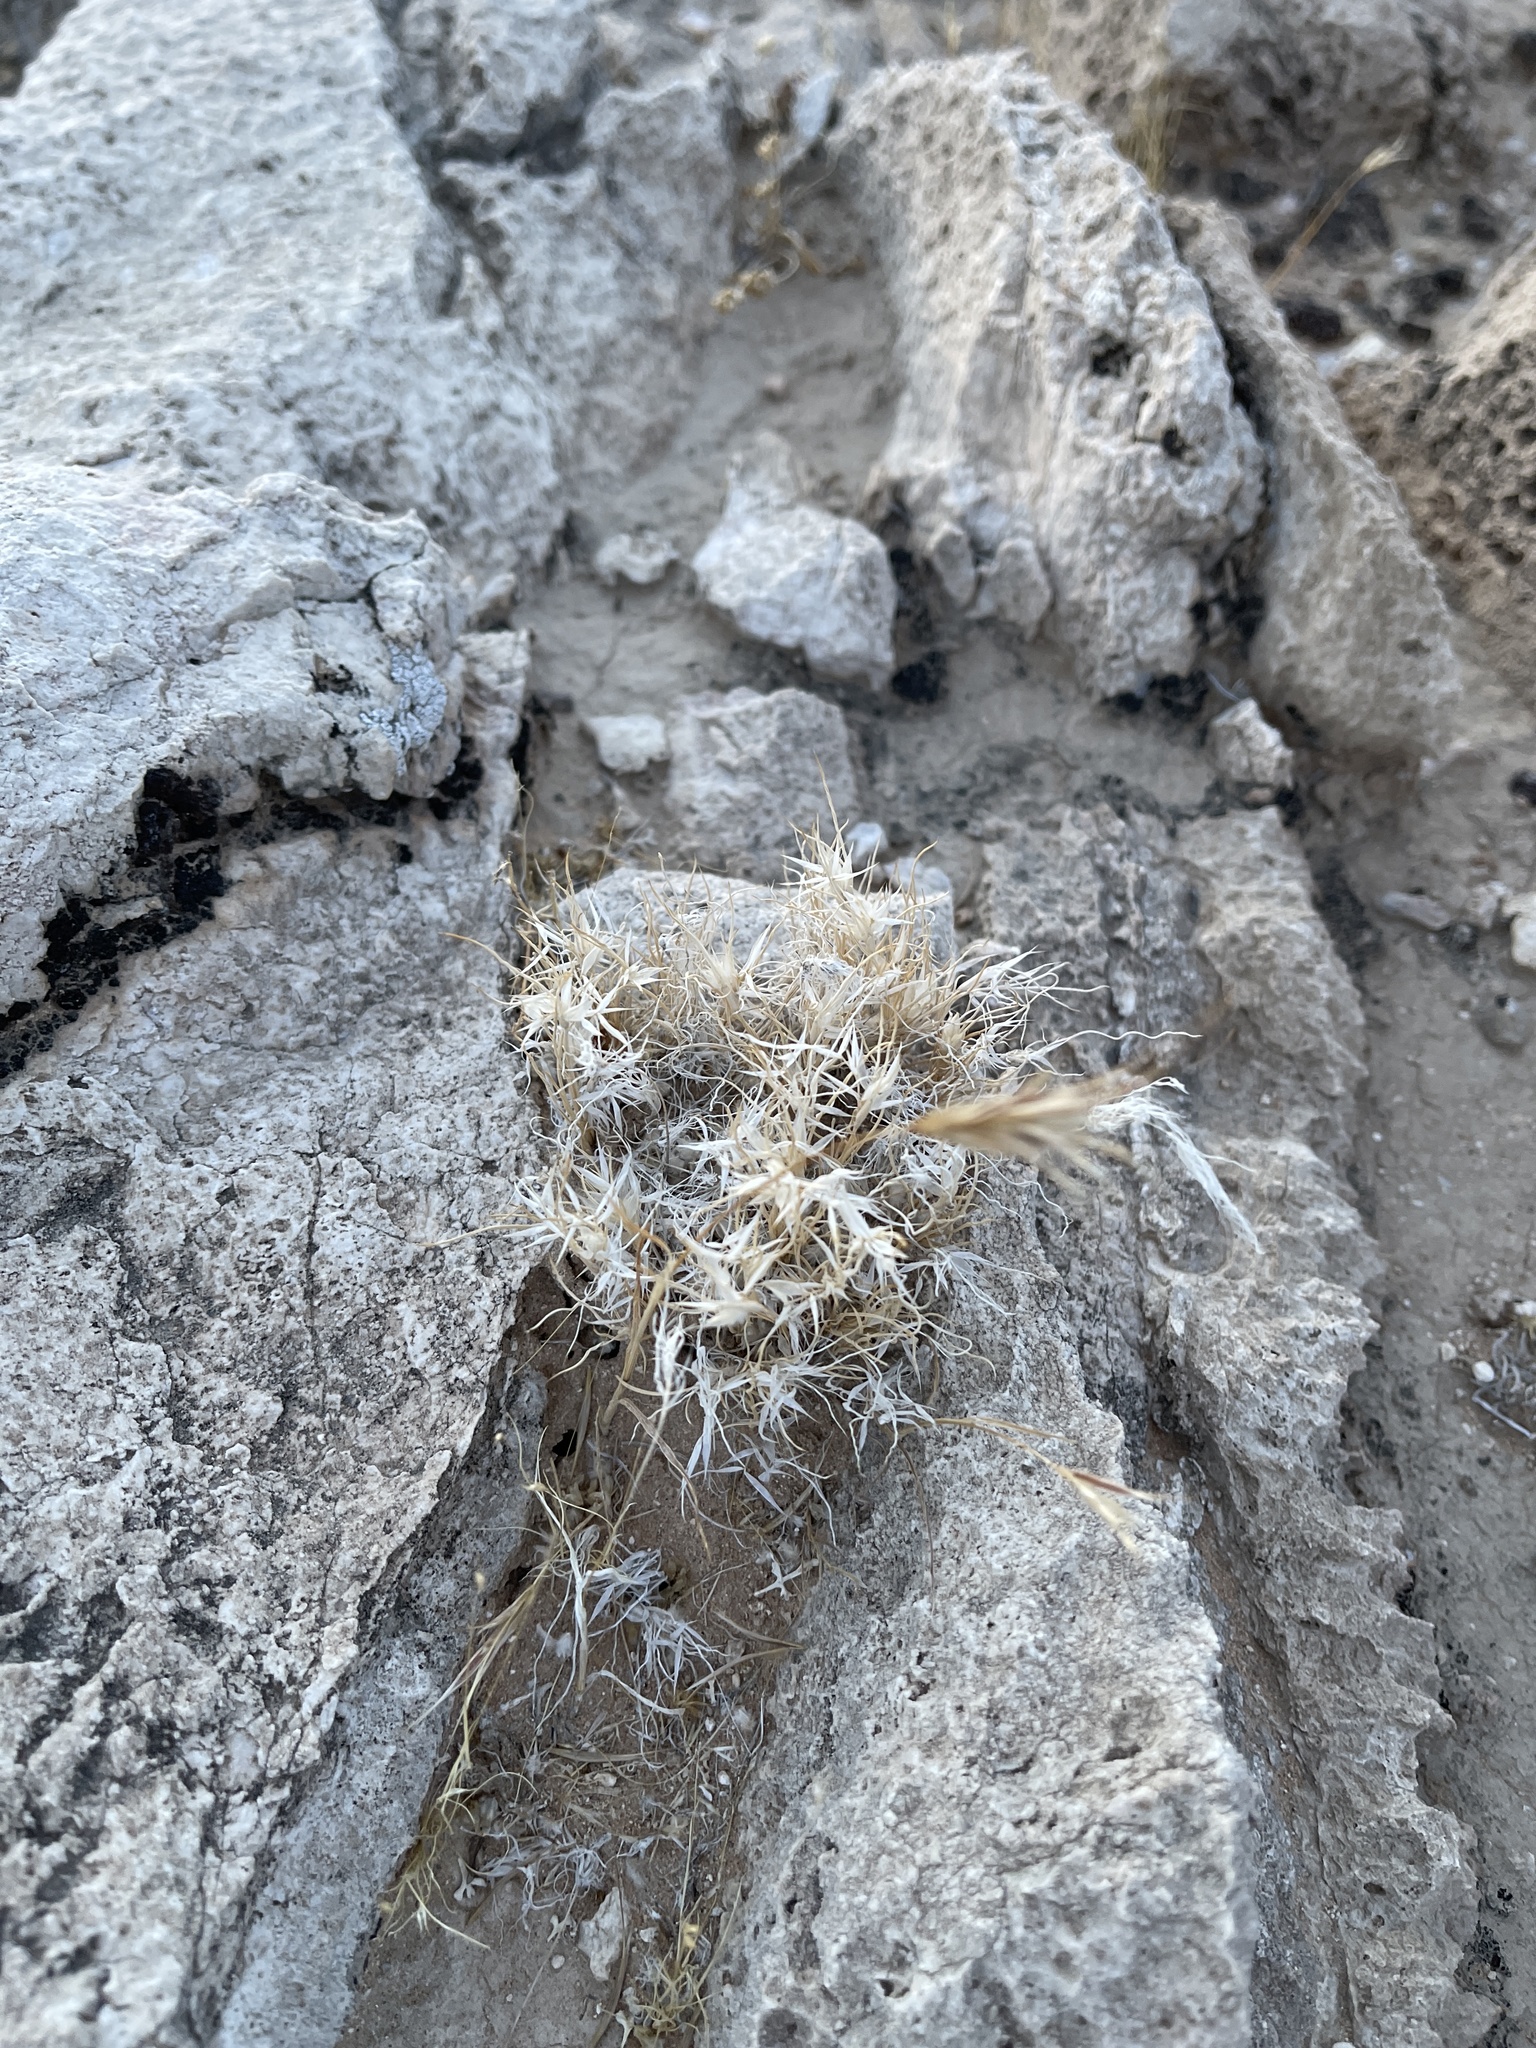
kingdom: Plantae
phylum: Tracheophyta
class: Liliopsida
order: Poales
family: Poaceae
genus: Dasyochloa
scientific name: Dasyochloa pulchella
